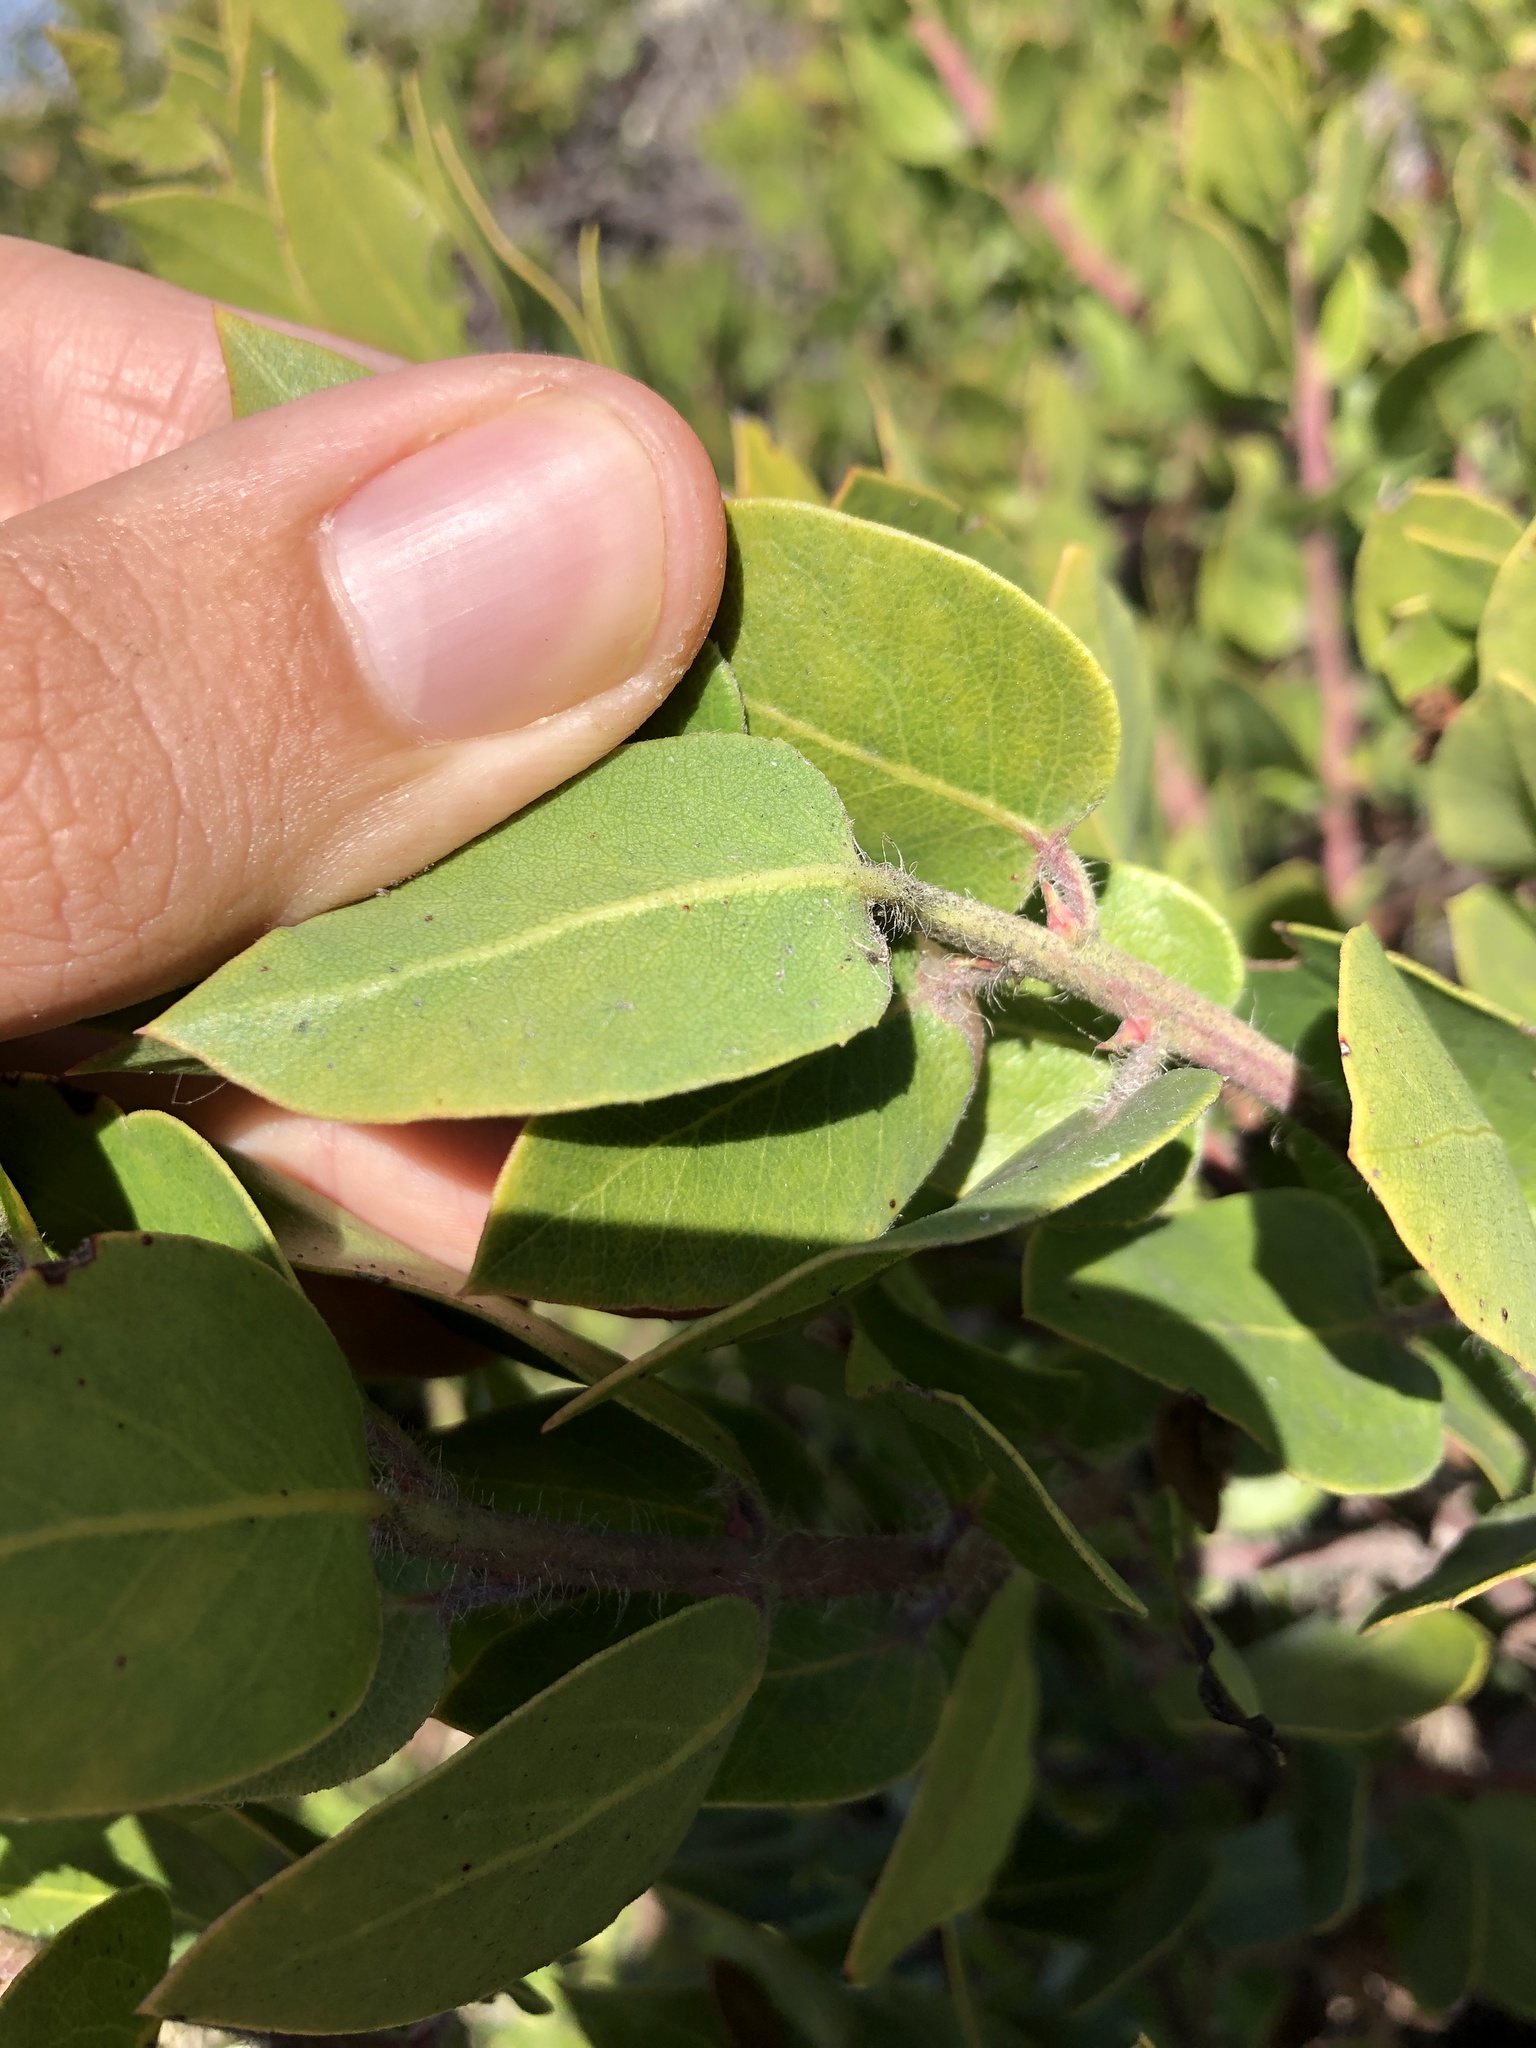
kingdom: Plantae
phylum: Tracheophyta
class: Magnoliopsida
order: Ericales
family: Ericaceae
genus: Arctostaphylos
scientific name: Arctostaphylos crustacea
